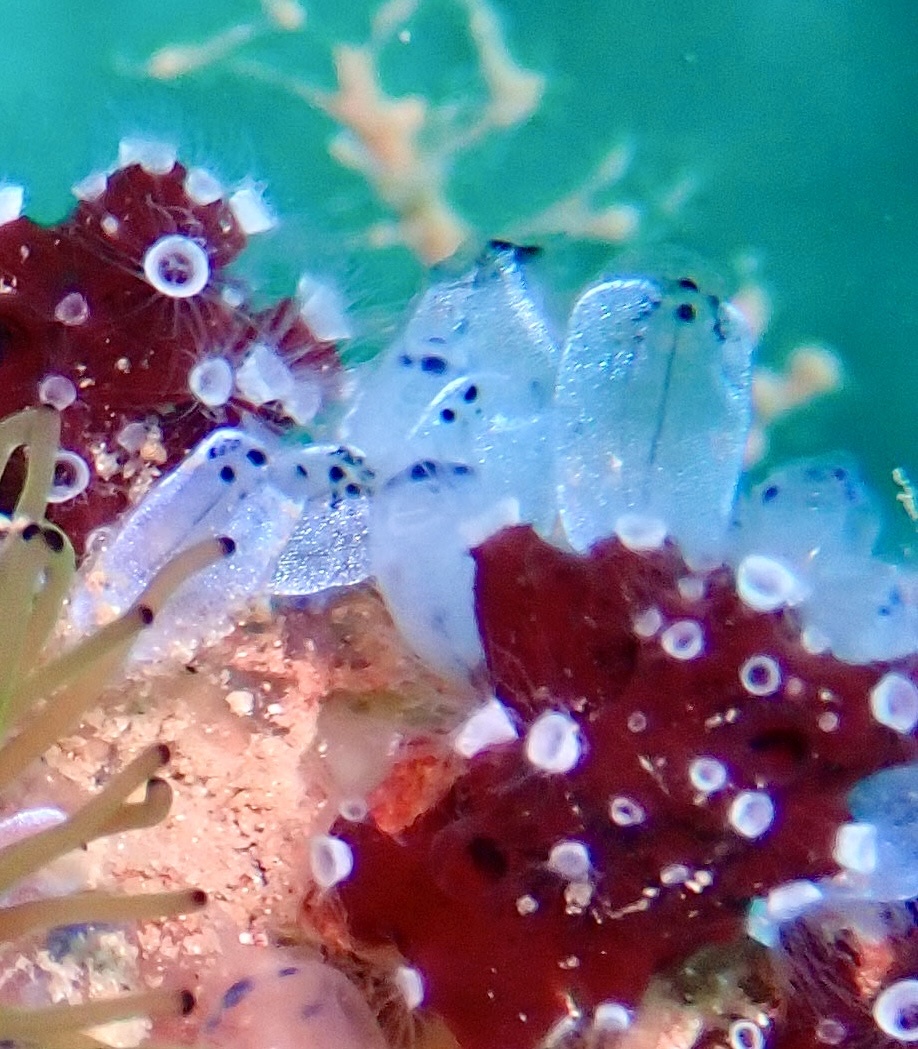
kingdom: Animalia
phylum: Chordata
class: Ascidiacea
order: Aplousobranchia
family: Clavelinidae
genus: Clavelina
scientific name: Clavelina obesa
